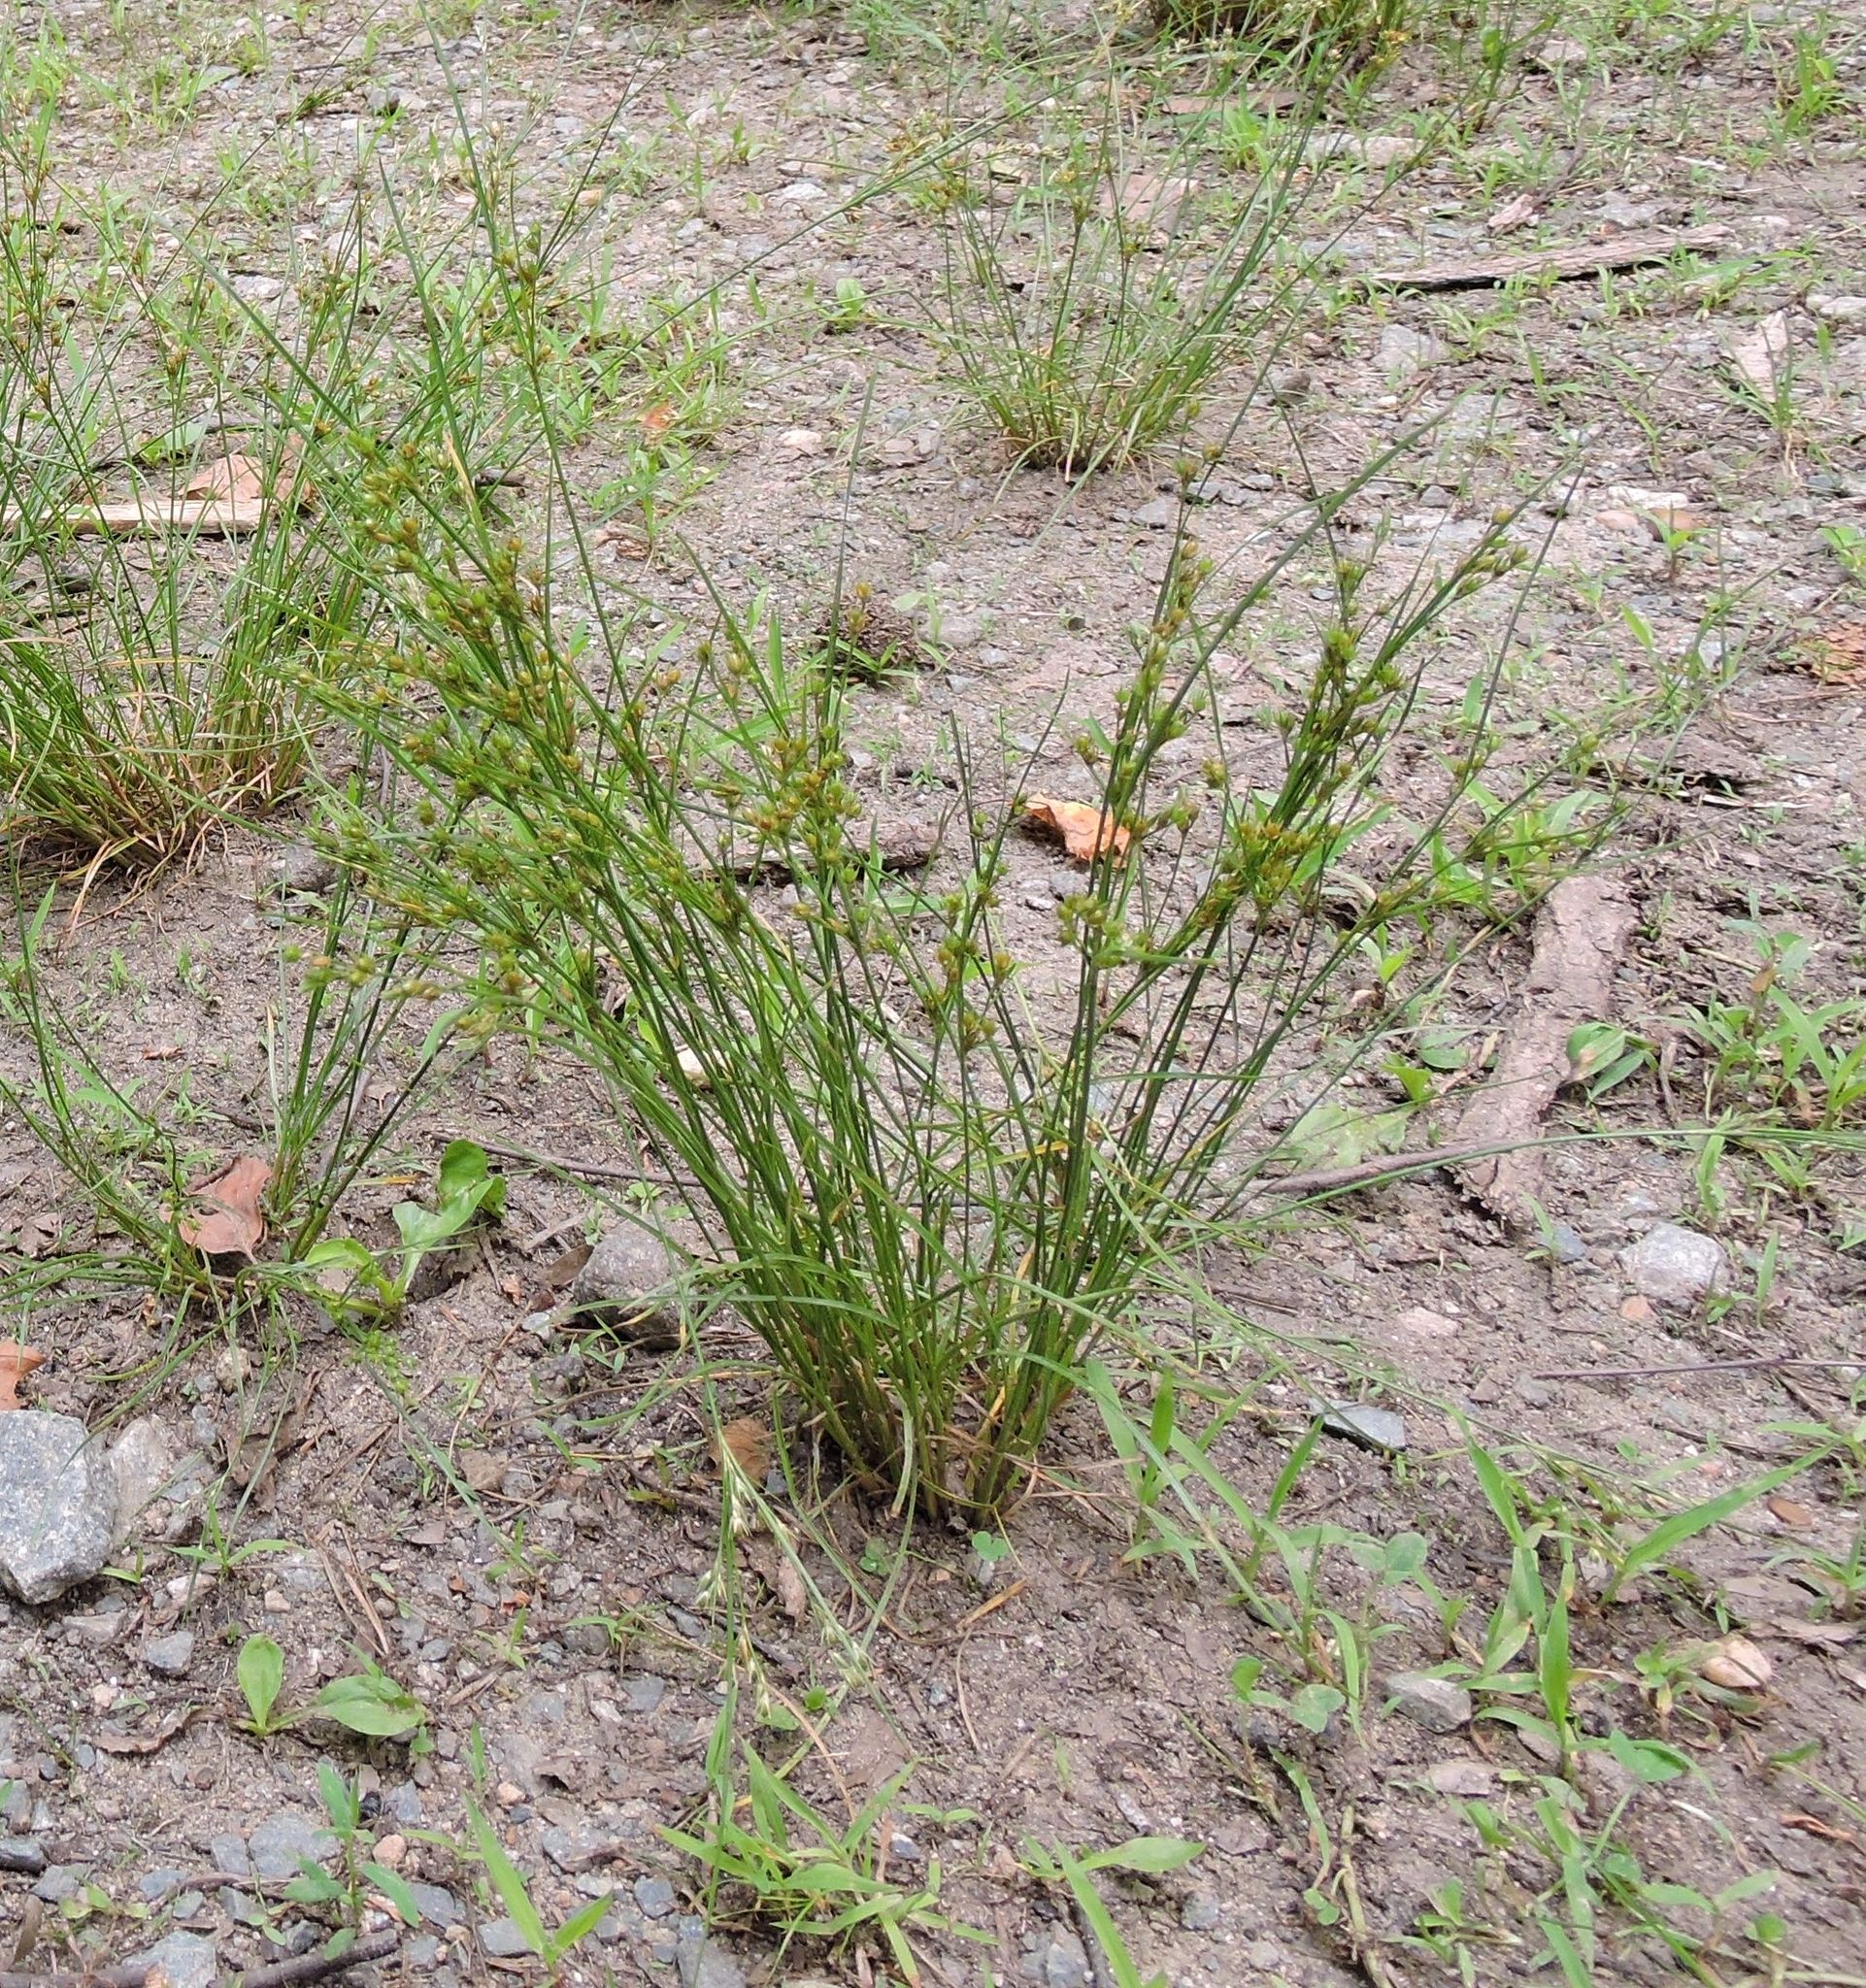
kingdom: Plantae
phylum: Tracheophyta
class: Liliopsida
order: Poales
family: Juncaceae
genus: Juncus
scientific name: Juncus tenuis
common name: Slender rush
